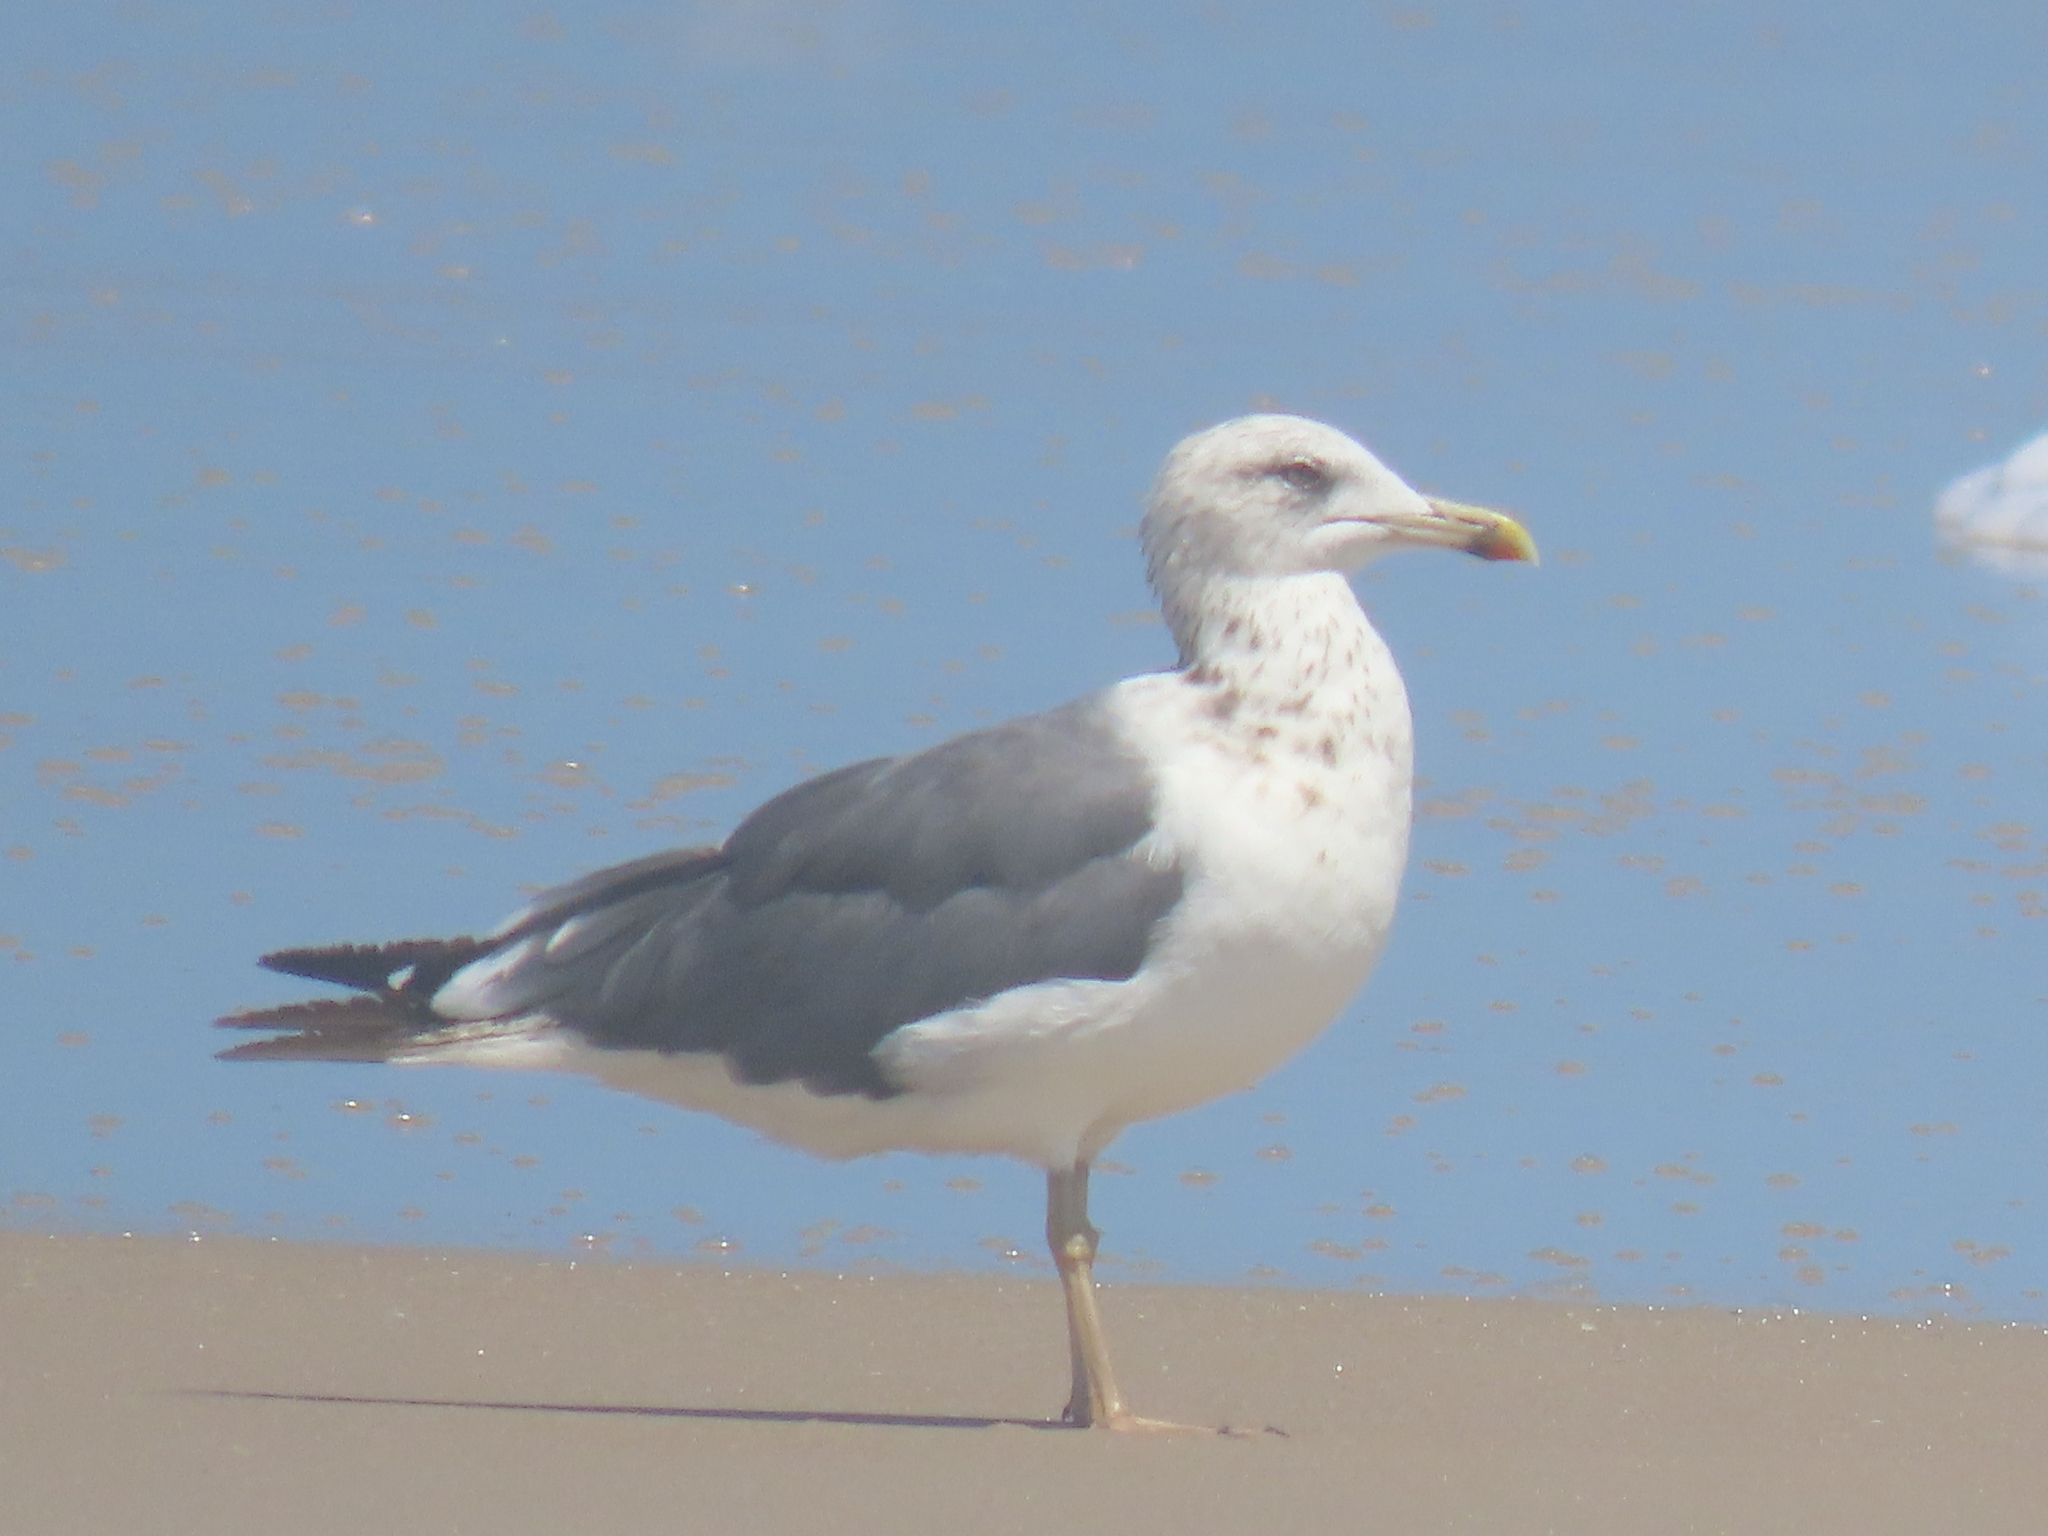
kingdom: Animalia
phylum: Chordata
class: Aves
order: Charadriiformes
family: Laridae
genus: Larus
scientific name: Larus fuscus
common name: Lesser black-backed gull
